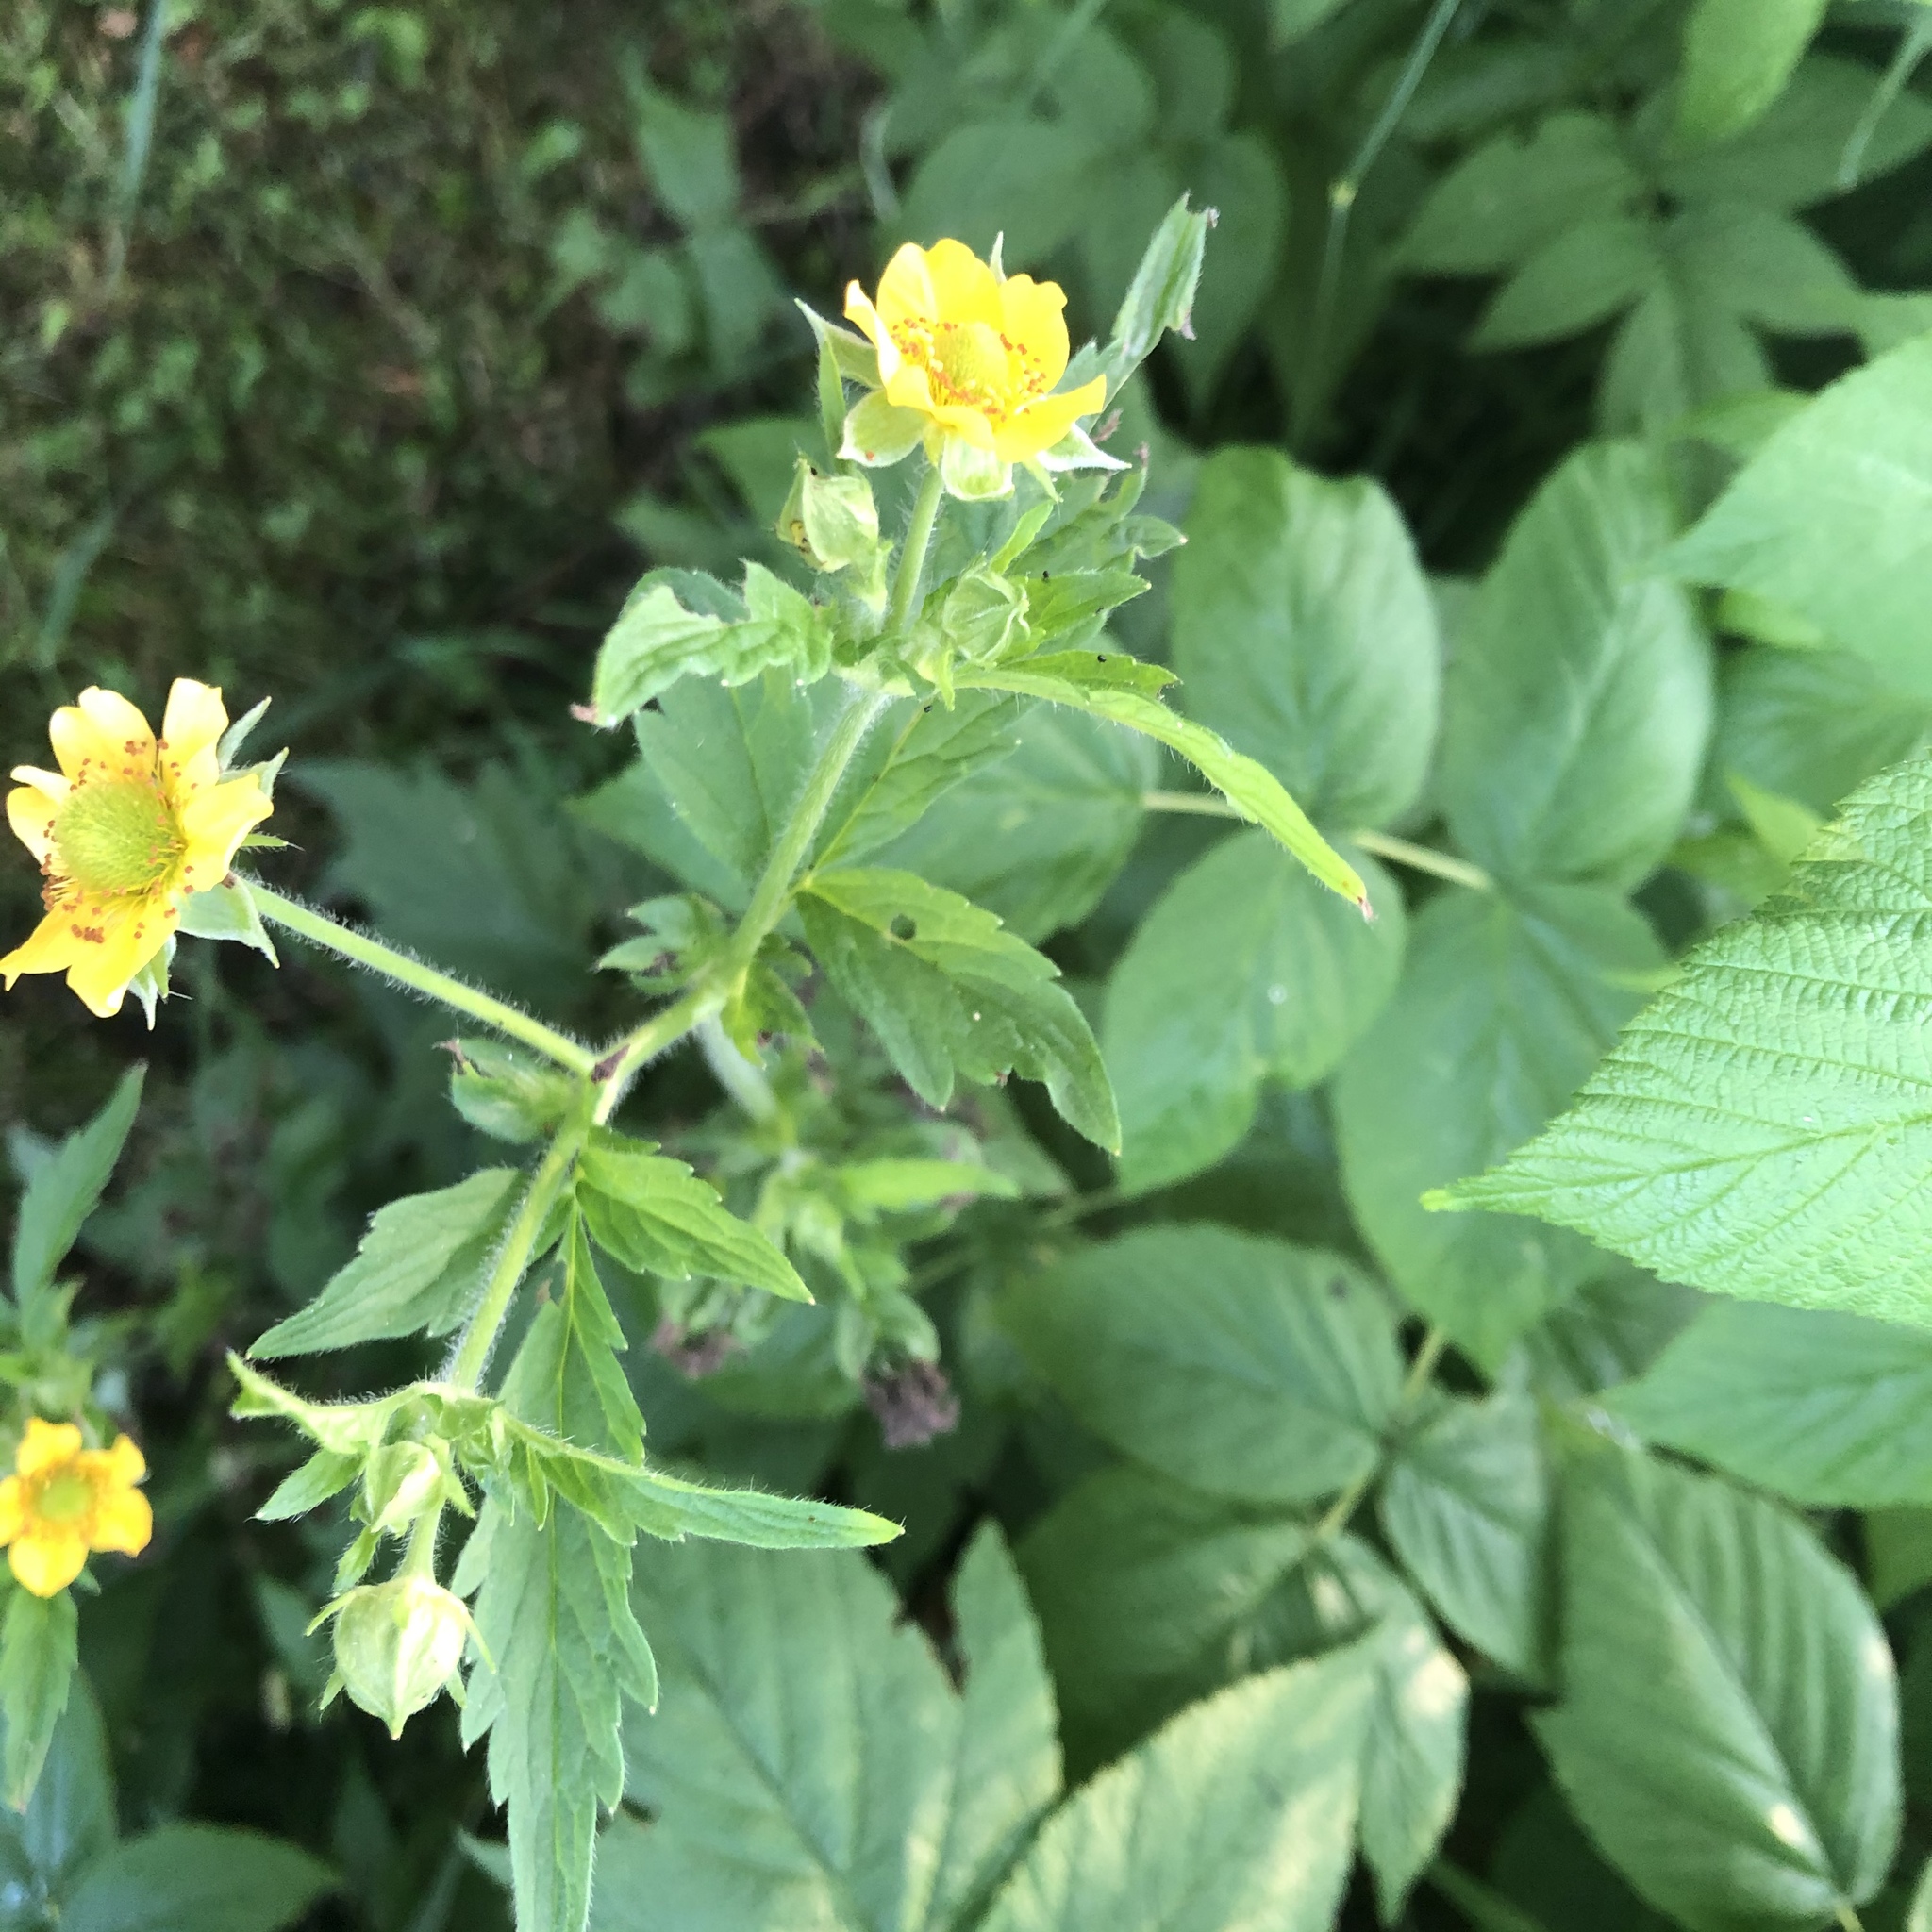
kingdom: Plantae
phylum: Tracheophyta
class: Magnoliopsida
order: Rosales
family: Rosaceae
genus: Geum
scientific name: Geum aleppicum
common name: Yellow avens
